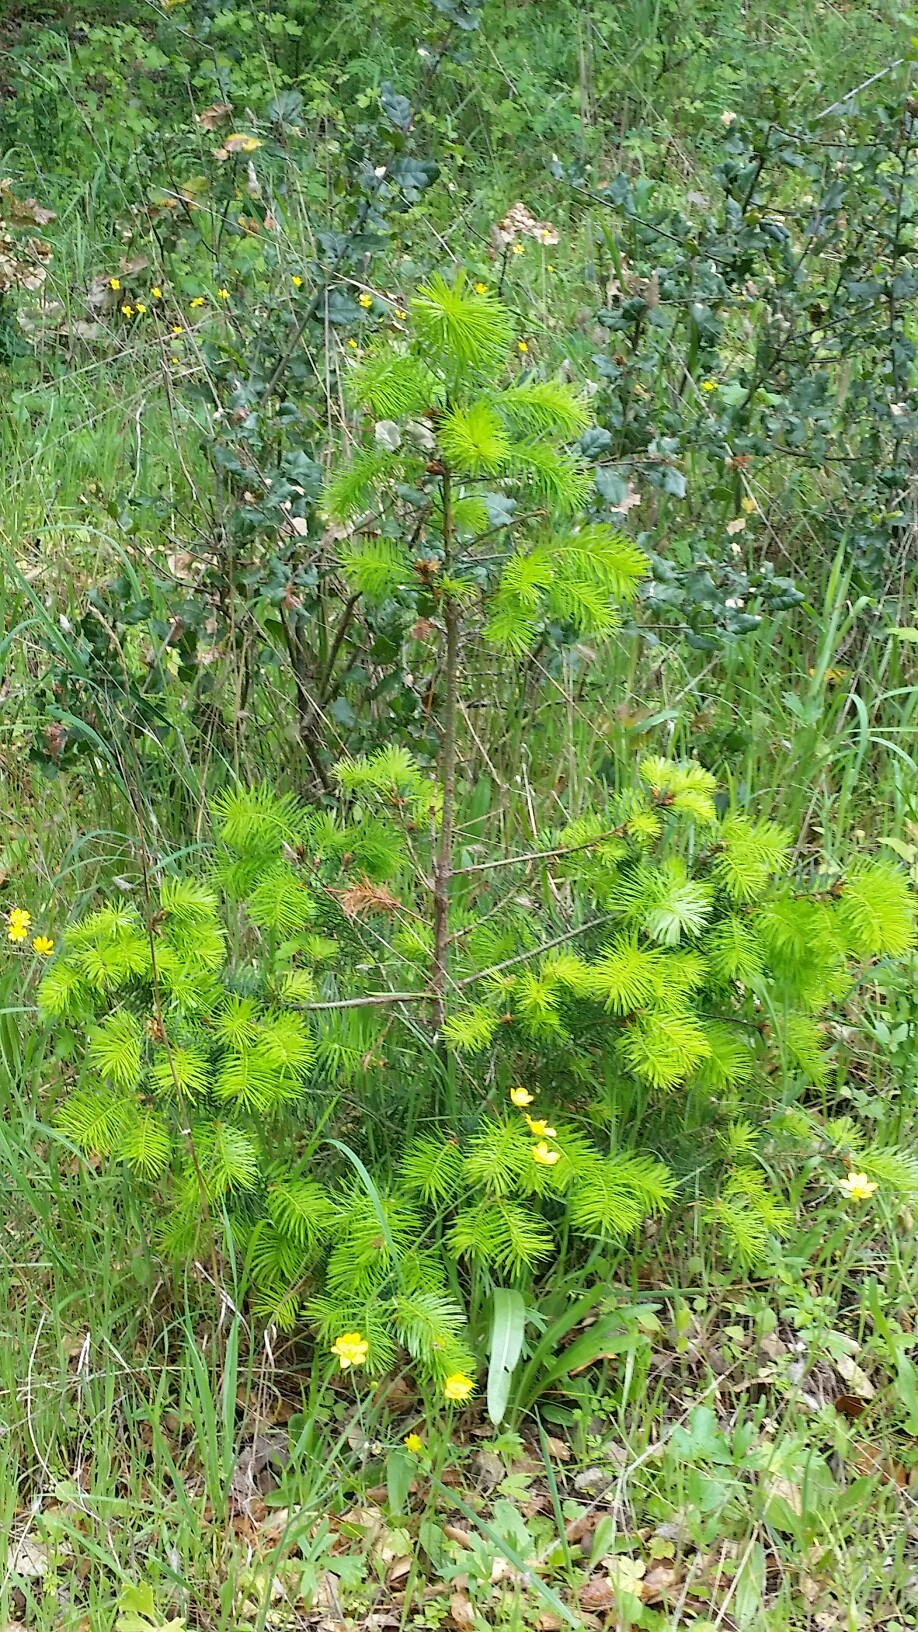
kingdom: Plantae
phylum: Tracheophyta
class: Pinopsida
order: Pinales
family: Pinaceae
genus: Pseudotsuga
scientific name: Pseudotsuga menziesii
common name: Douglas fir
